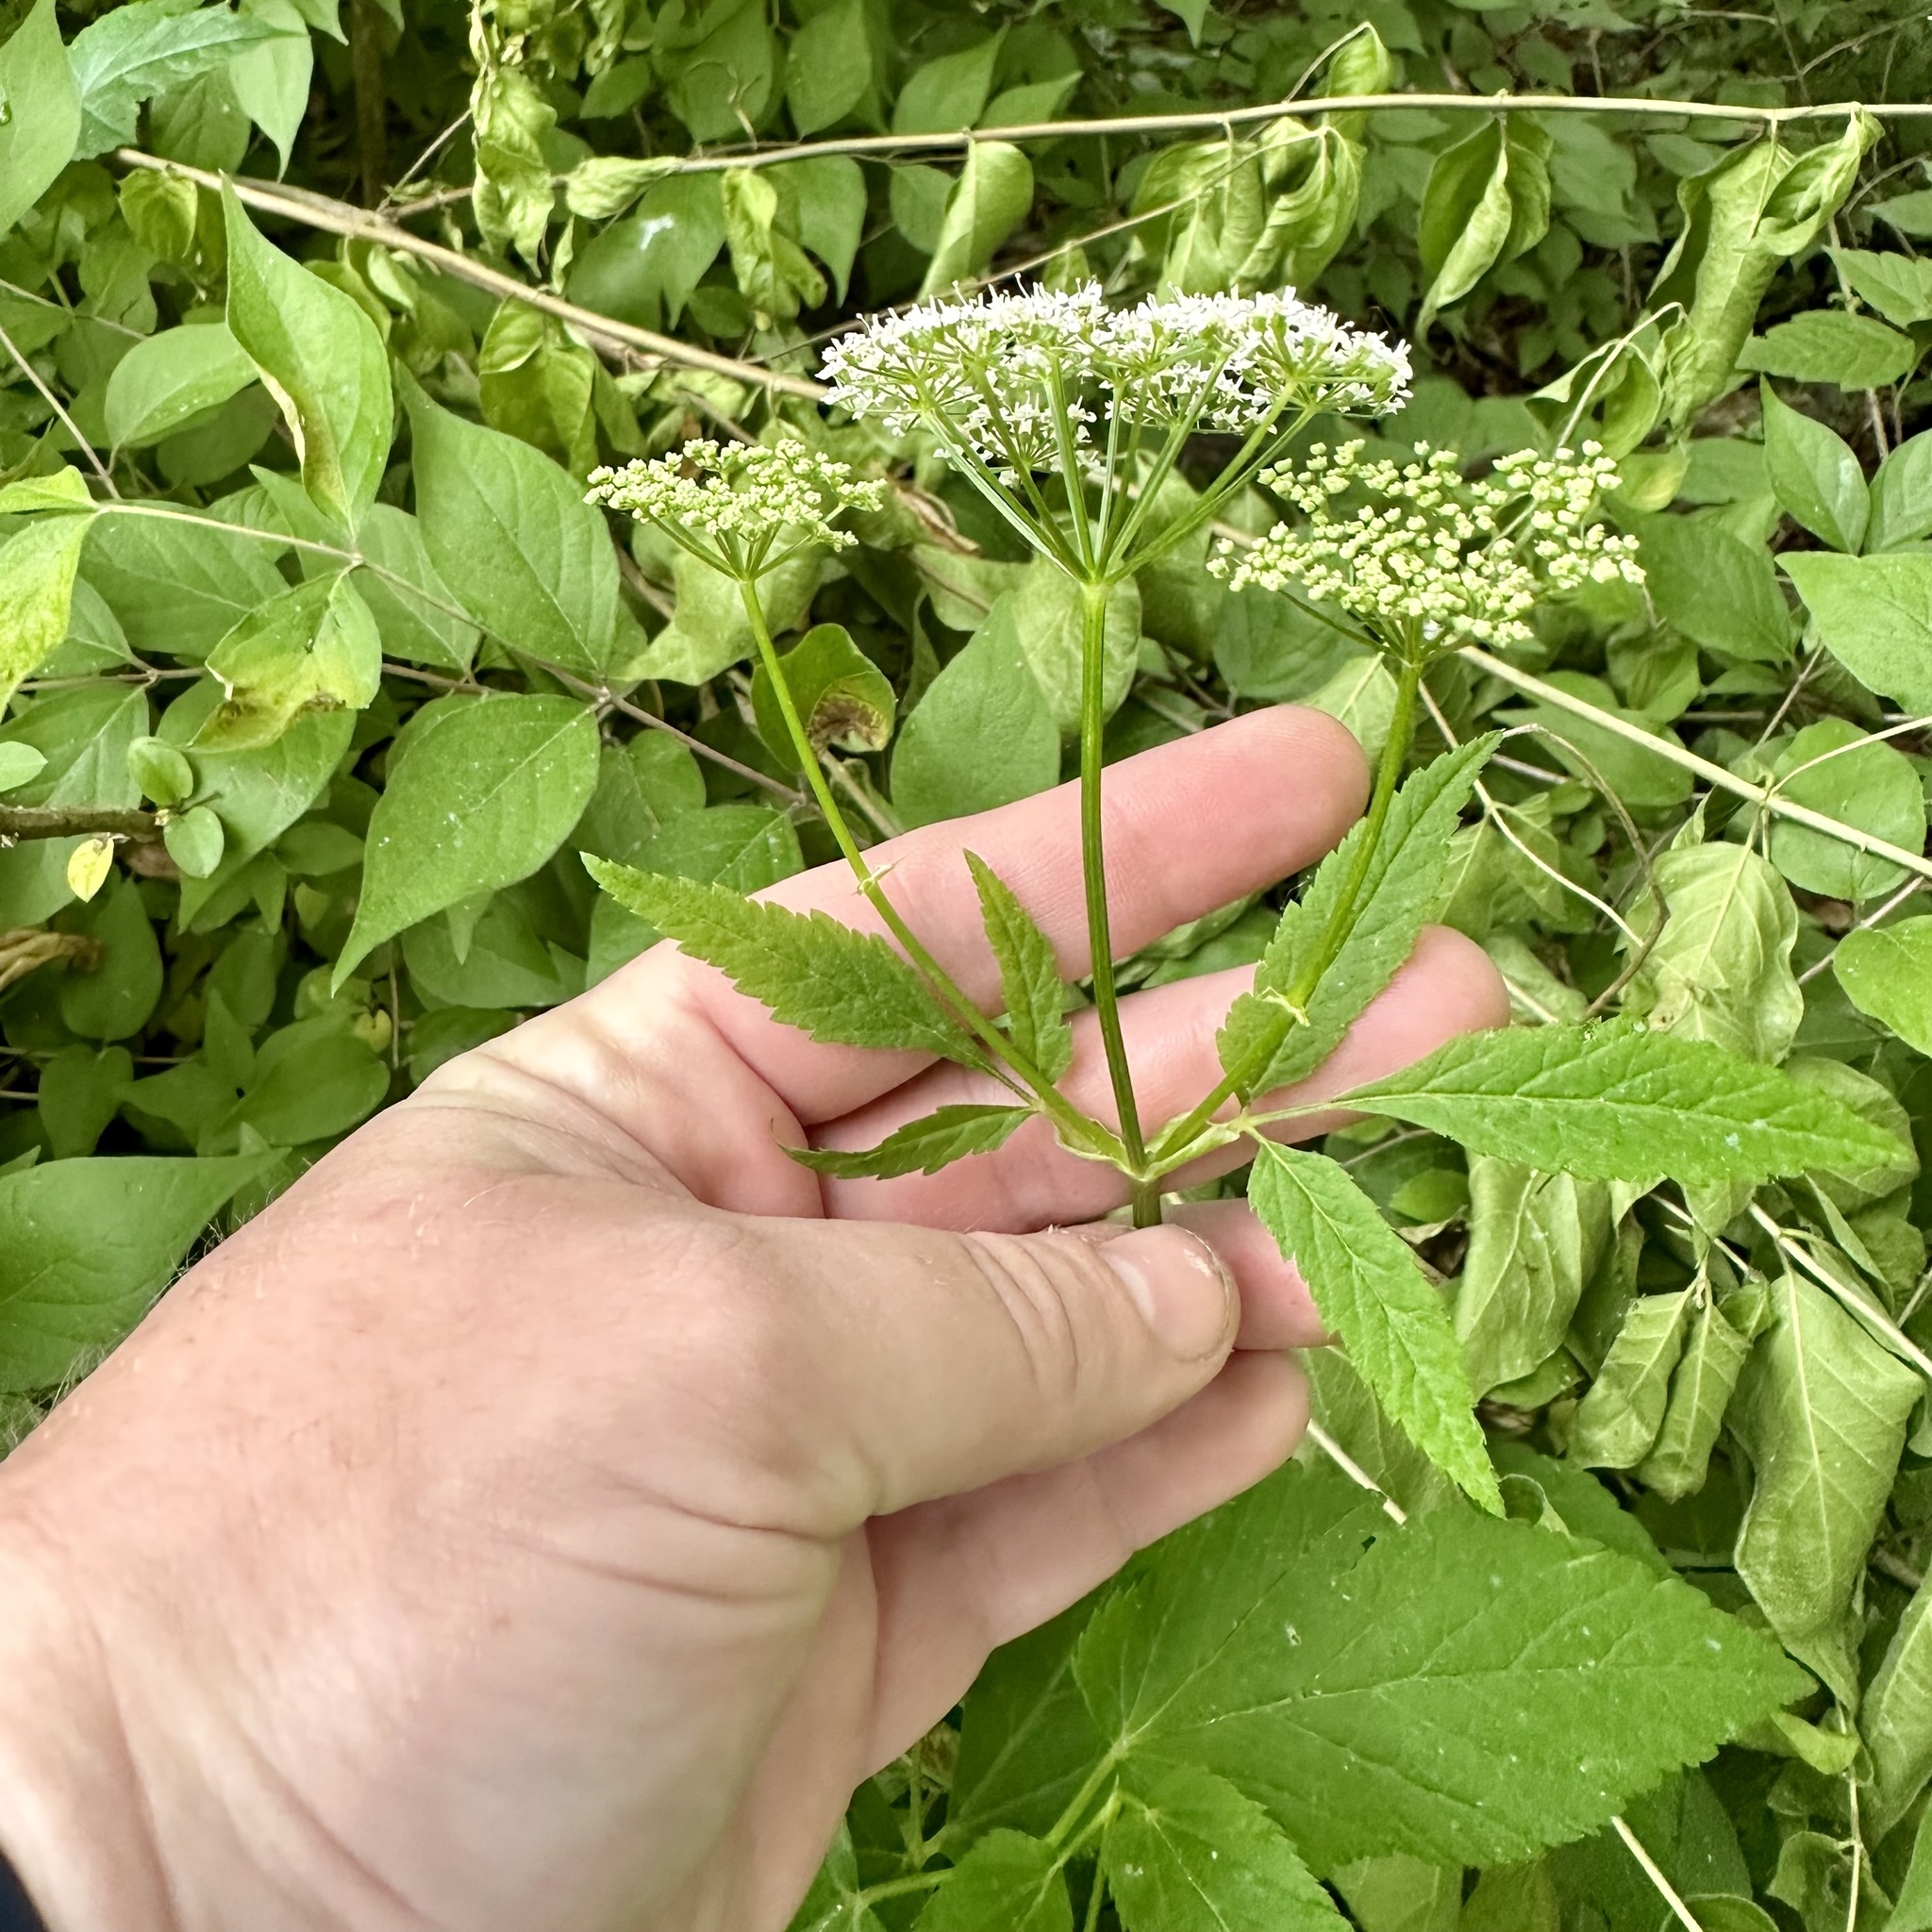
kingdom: Plantae
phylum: Tracheophyta
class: Magnoliopsida
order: Apiales
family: Apiaceae
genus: Aegopodium
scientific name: Aegopodium podagraria
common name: Ground-elder
